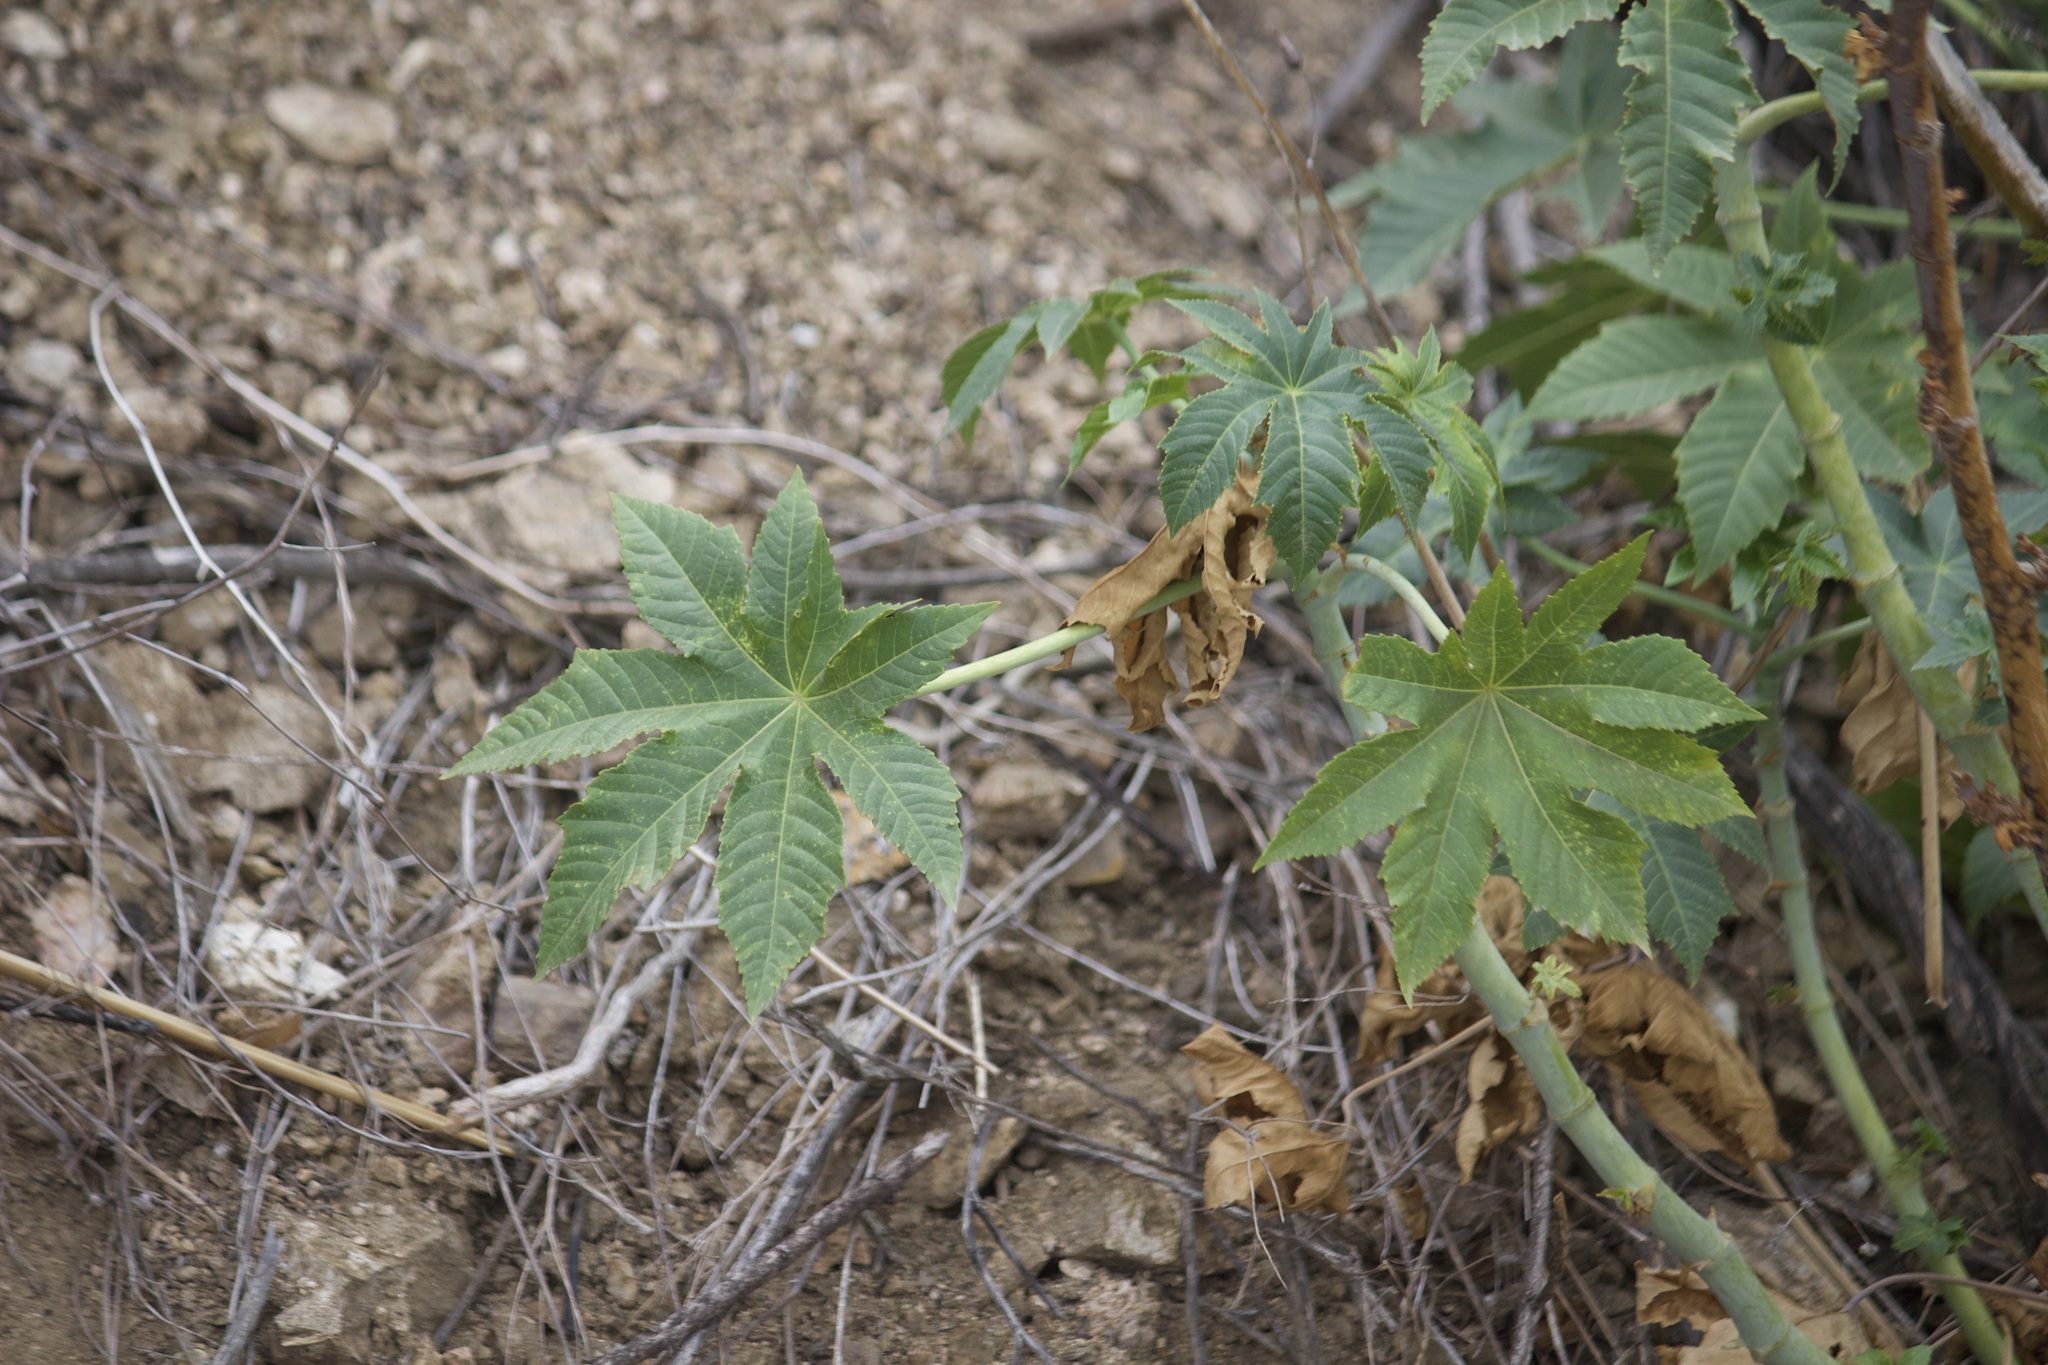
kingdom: Plantae
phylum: Tracheophyta
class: Magnoliopsida
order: Malpighiales
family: Euphorbiaceae
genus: Ricinus
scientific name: Ricinus communis
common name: Castor-oil-plant
